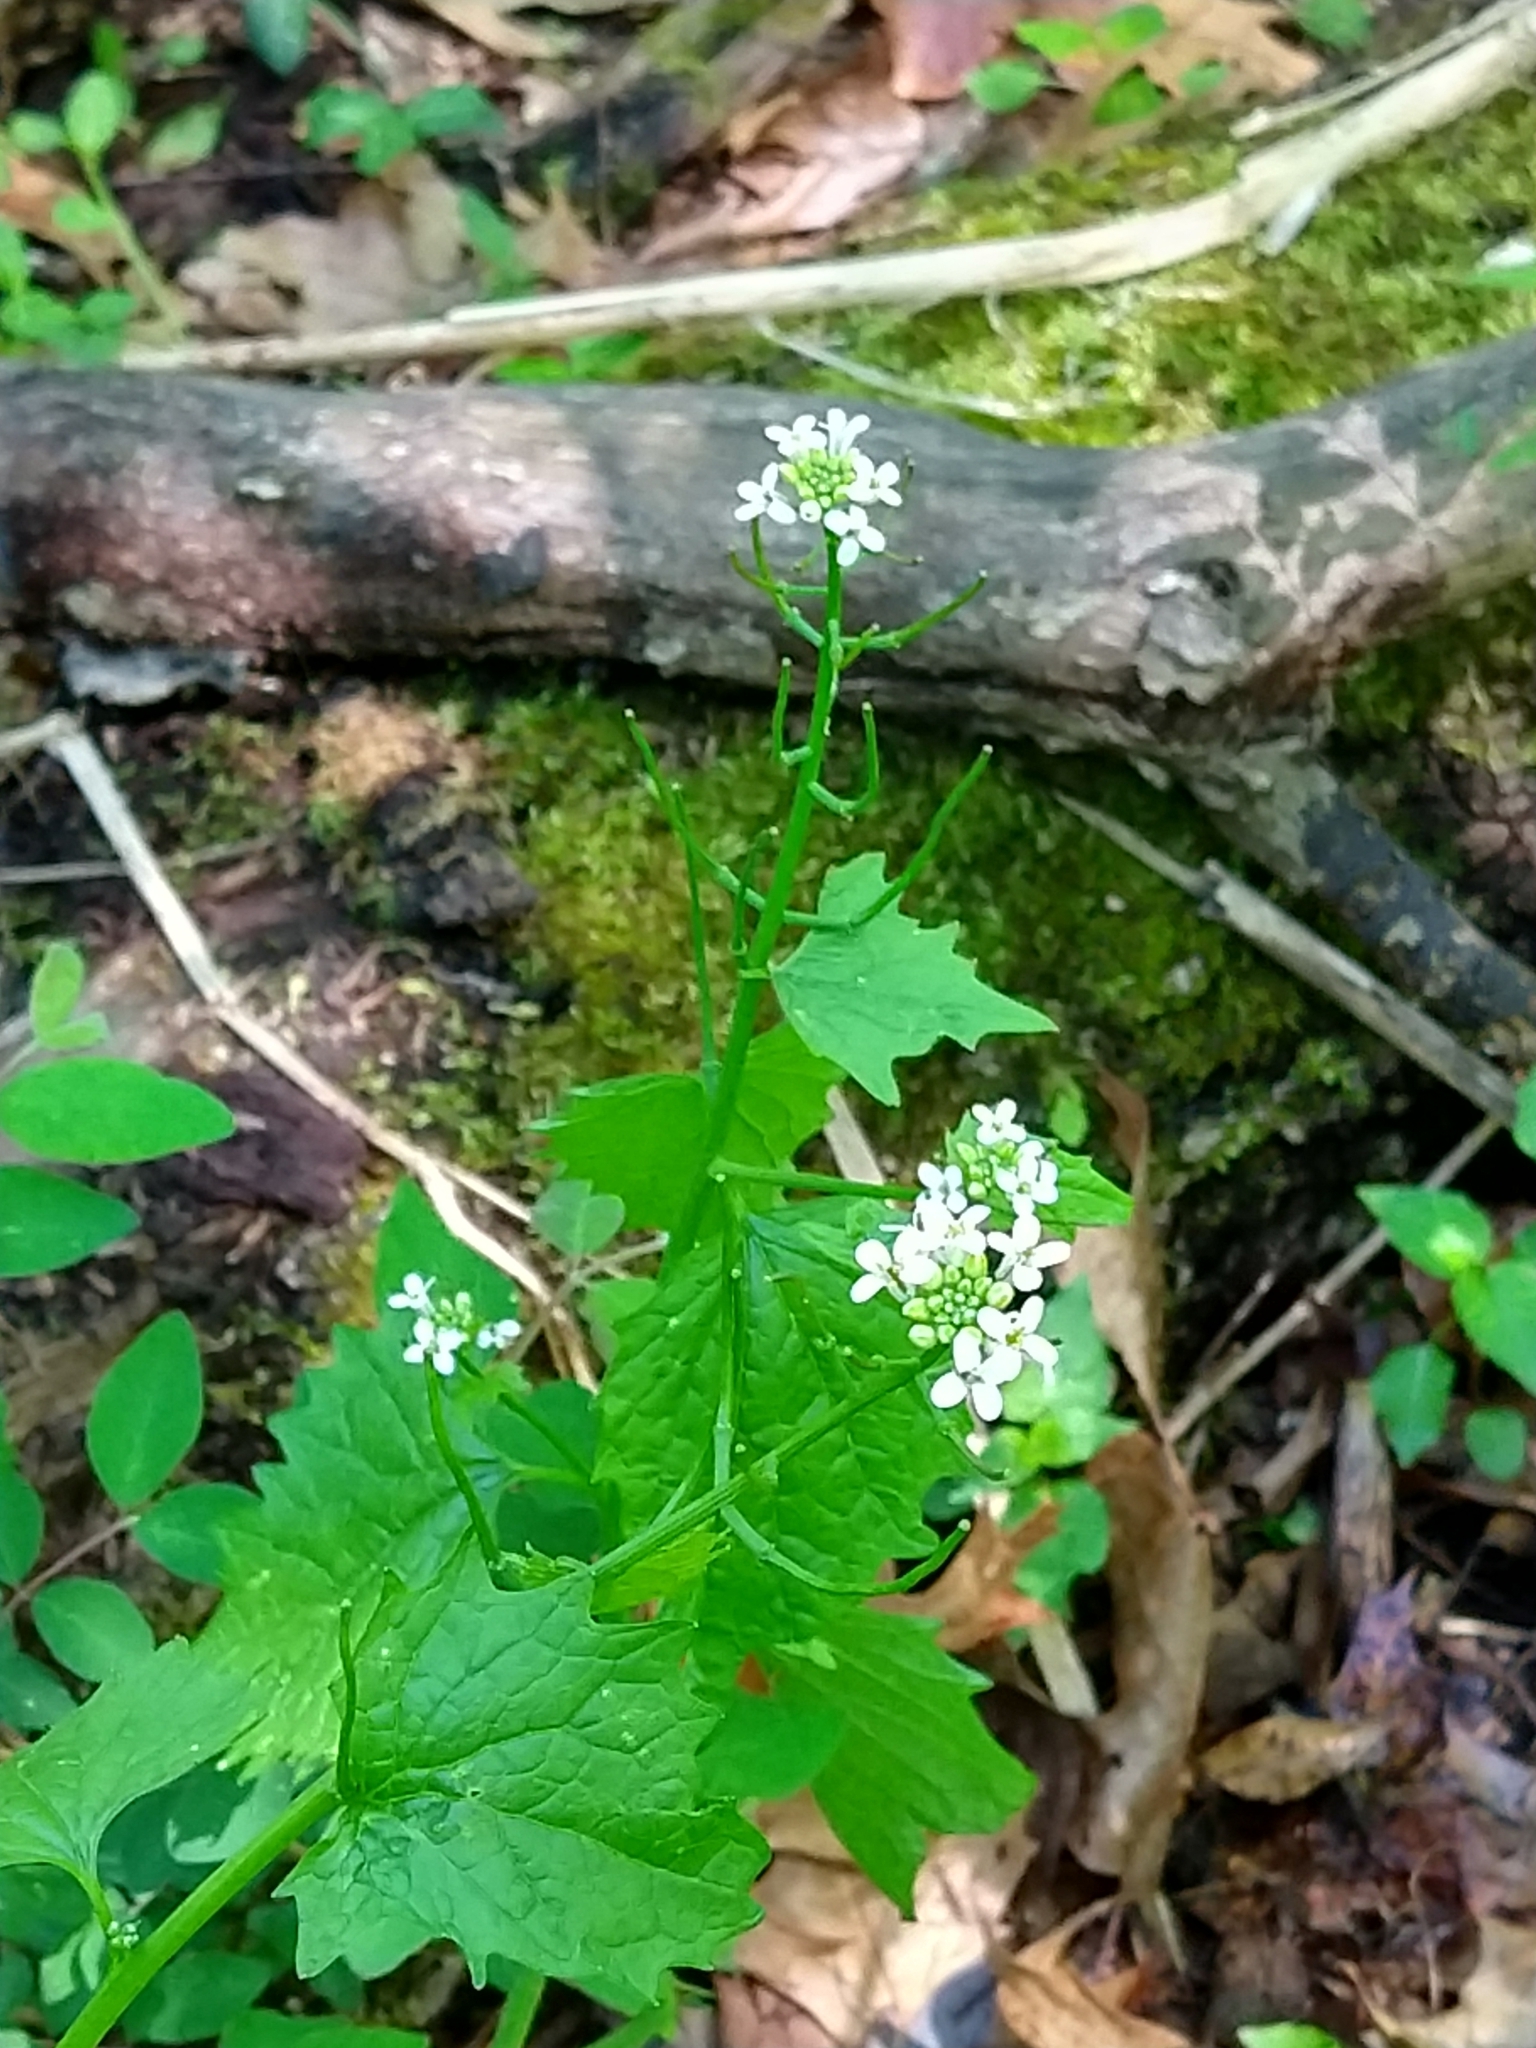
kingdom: Plantae
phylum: Tracheophyta
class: Magnoliopsida
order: Brassicales
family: Brassicaceae
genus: Alliaria
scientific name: Alliaria petiolata
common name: Garlic mustard
